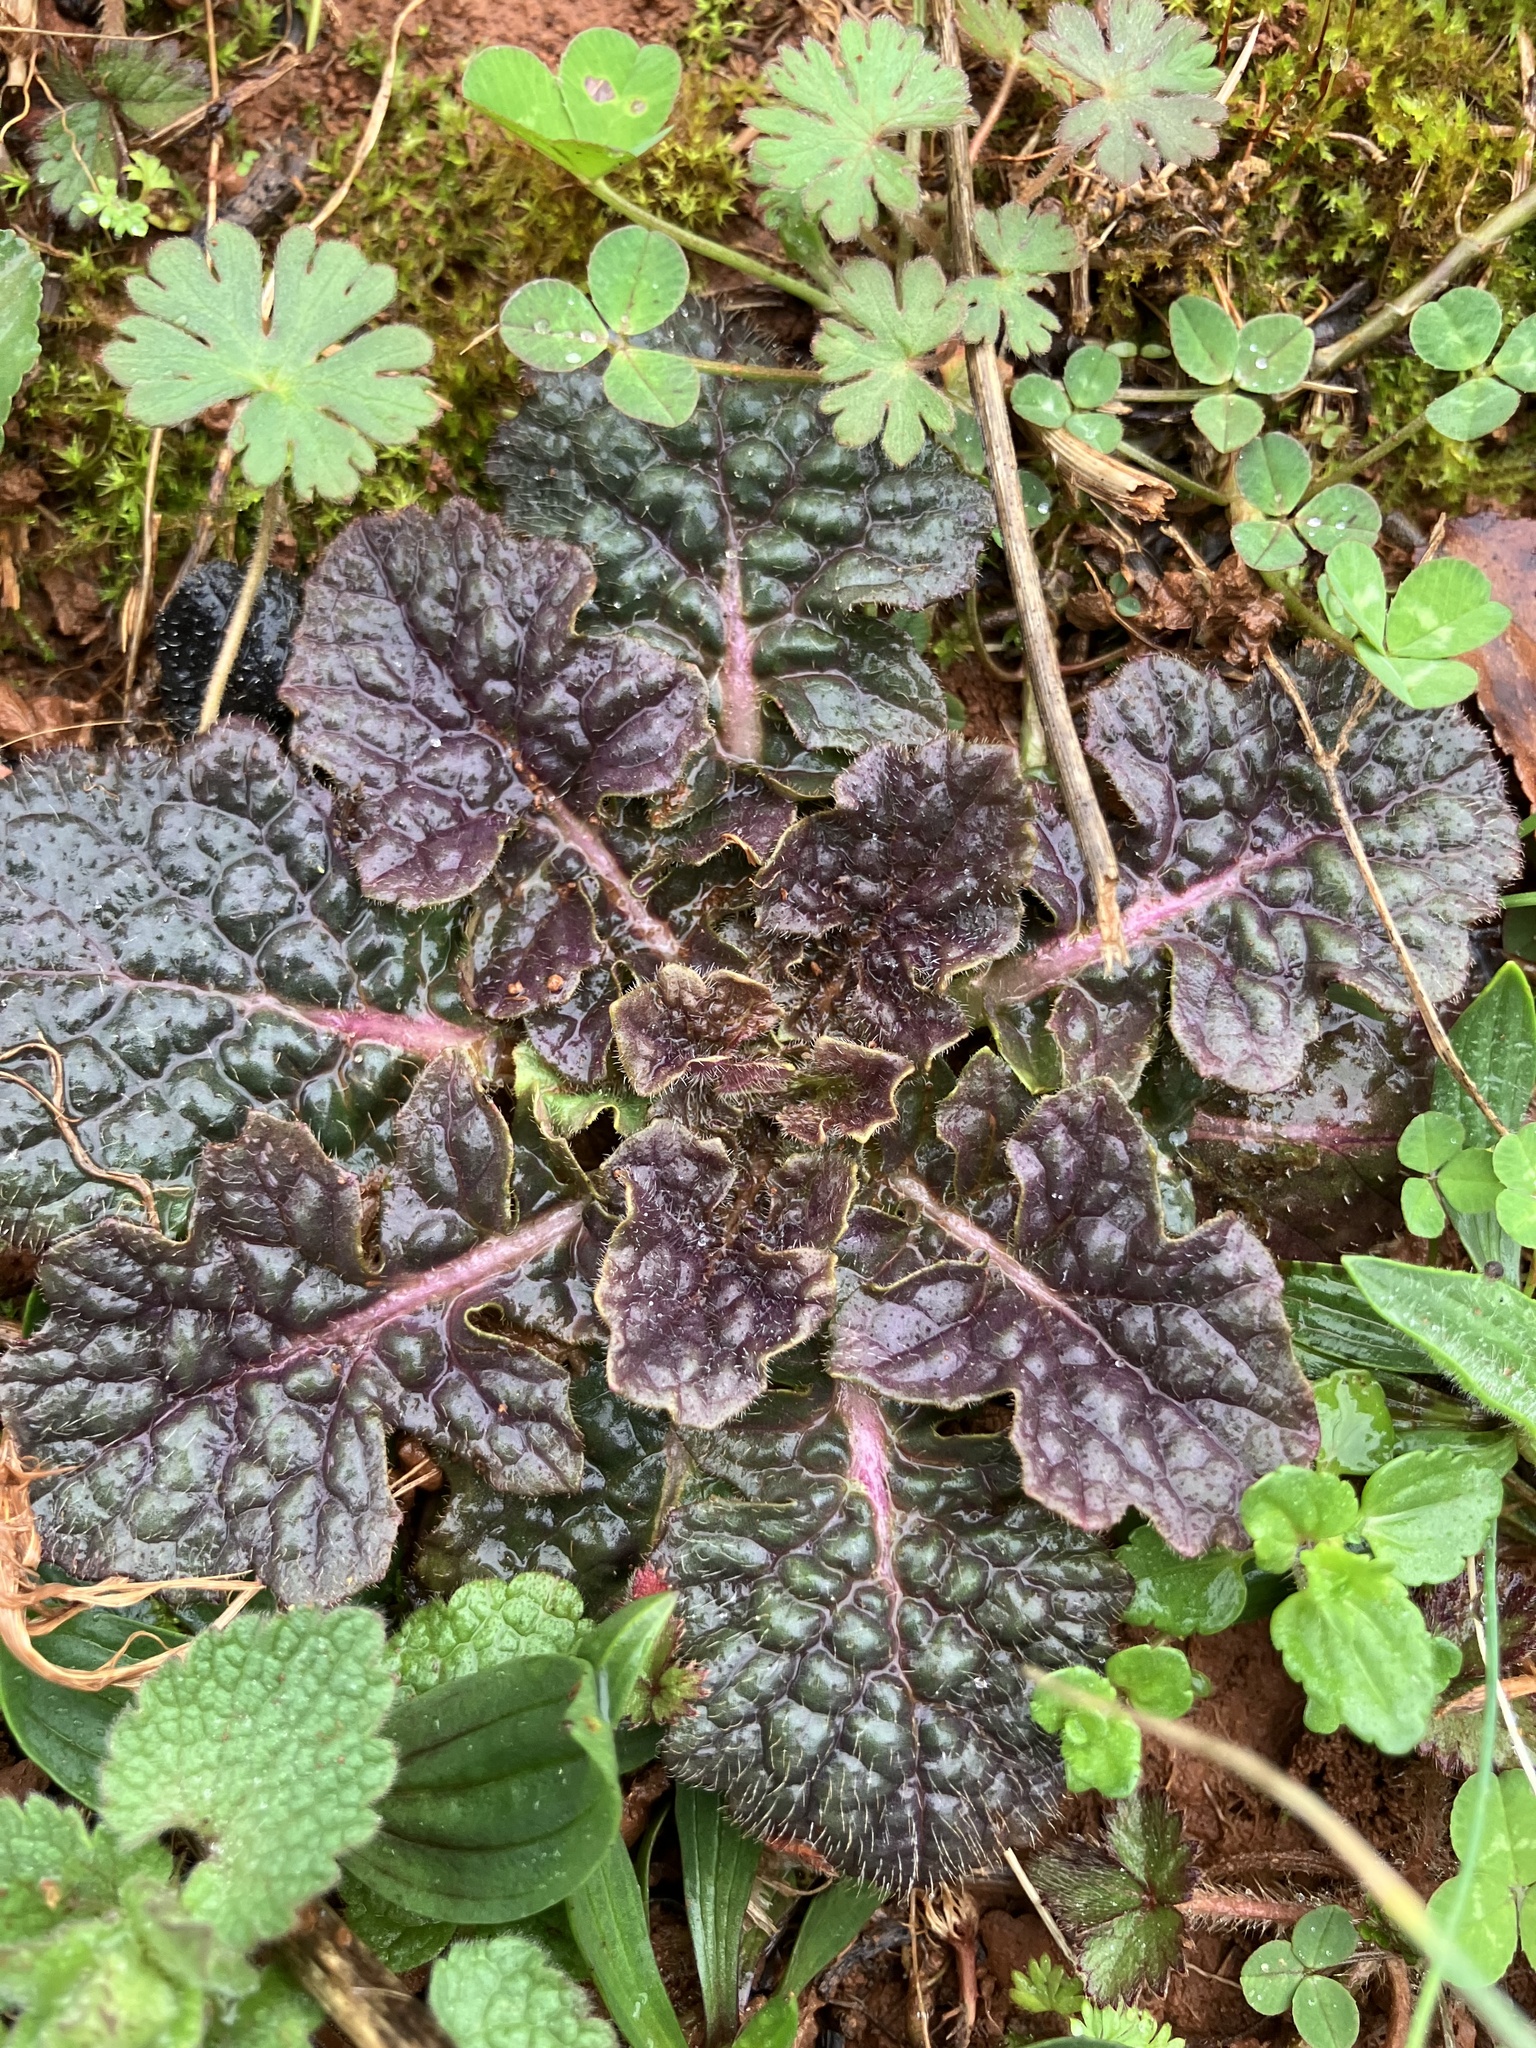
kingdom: Plantae
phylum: Tracheophyta
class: Magnoliopsida
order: Lamiales
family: Lamiaceae
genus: Salvia
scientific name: Salvia lyrata
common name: Cancerweed
